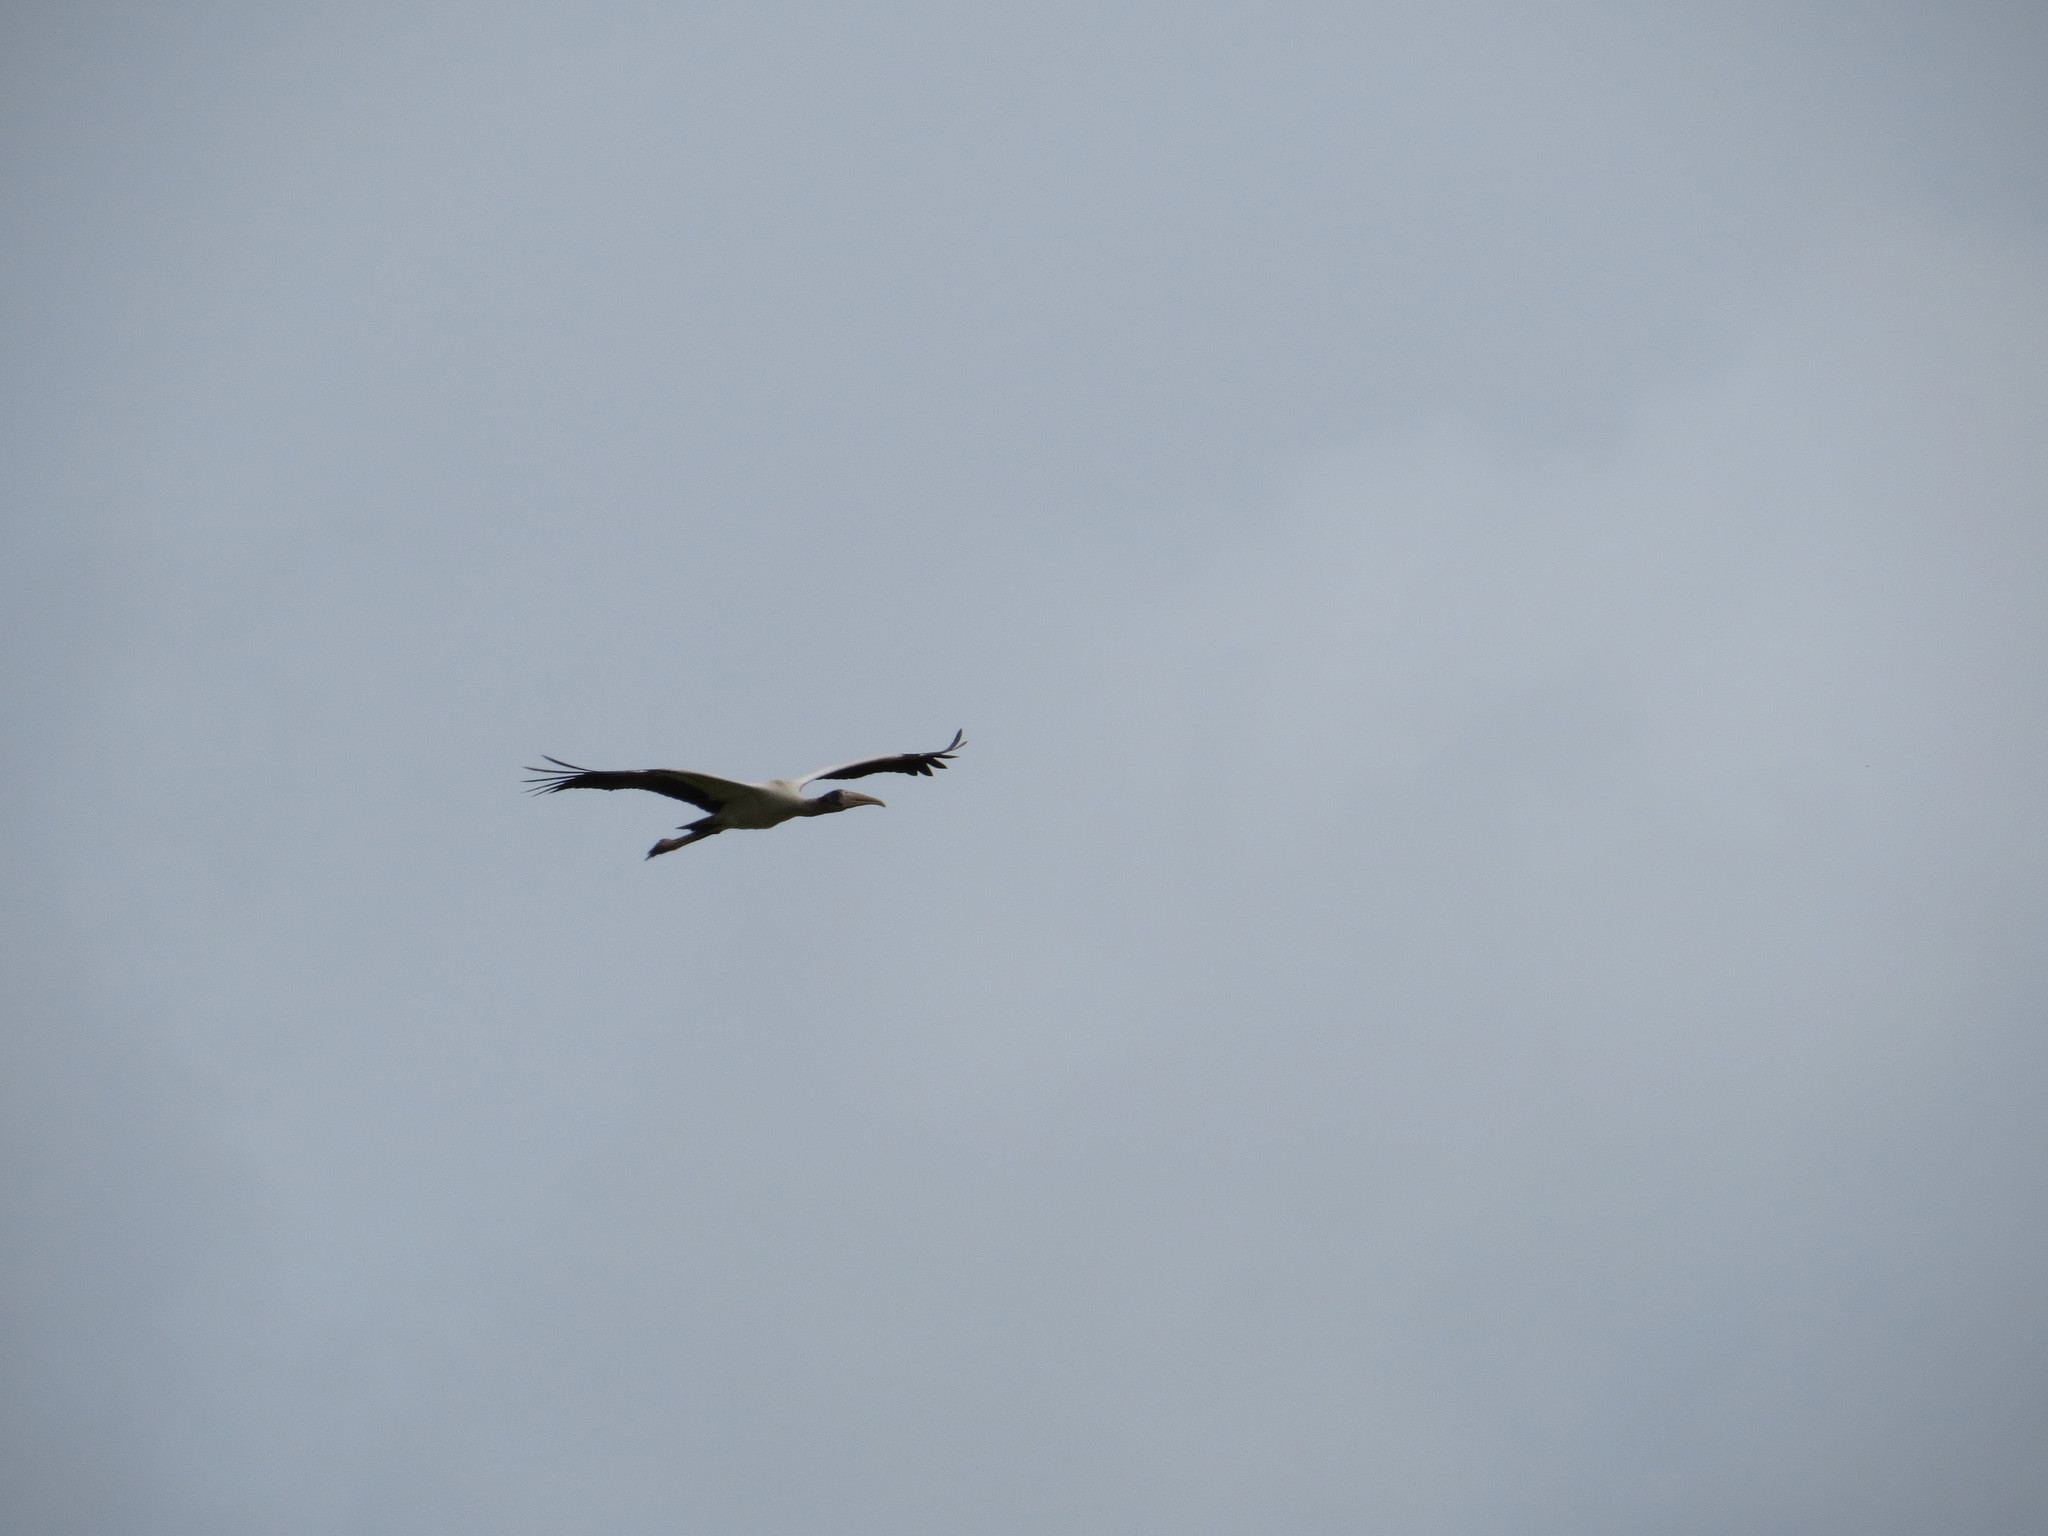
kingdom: Animalia
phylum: Chordata
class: Aves
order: Ciconiiformes
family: Ciconiidae
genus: Mycteria
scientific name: Mycteria americana
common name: Wood stork
